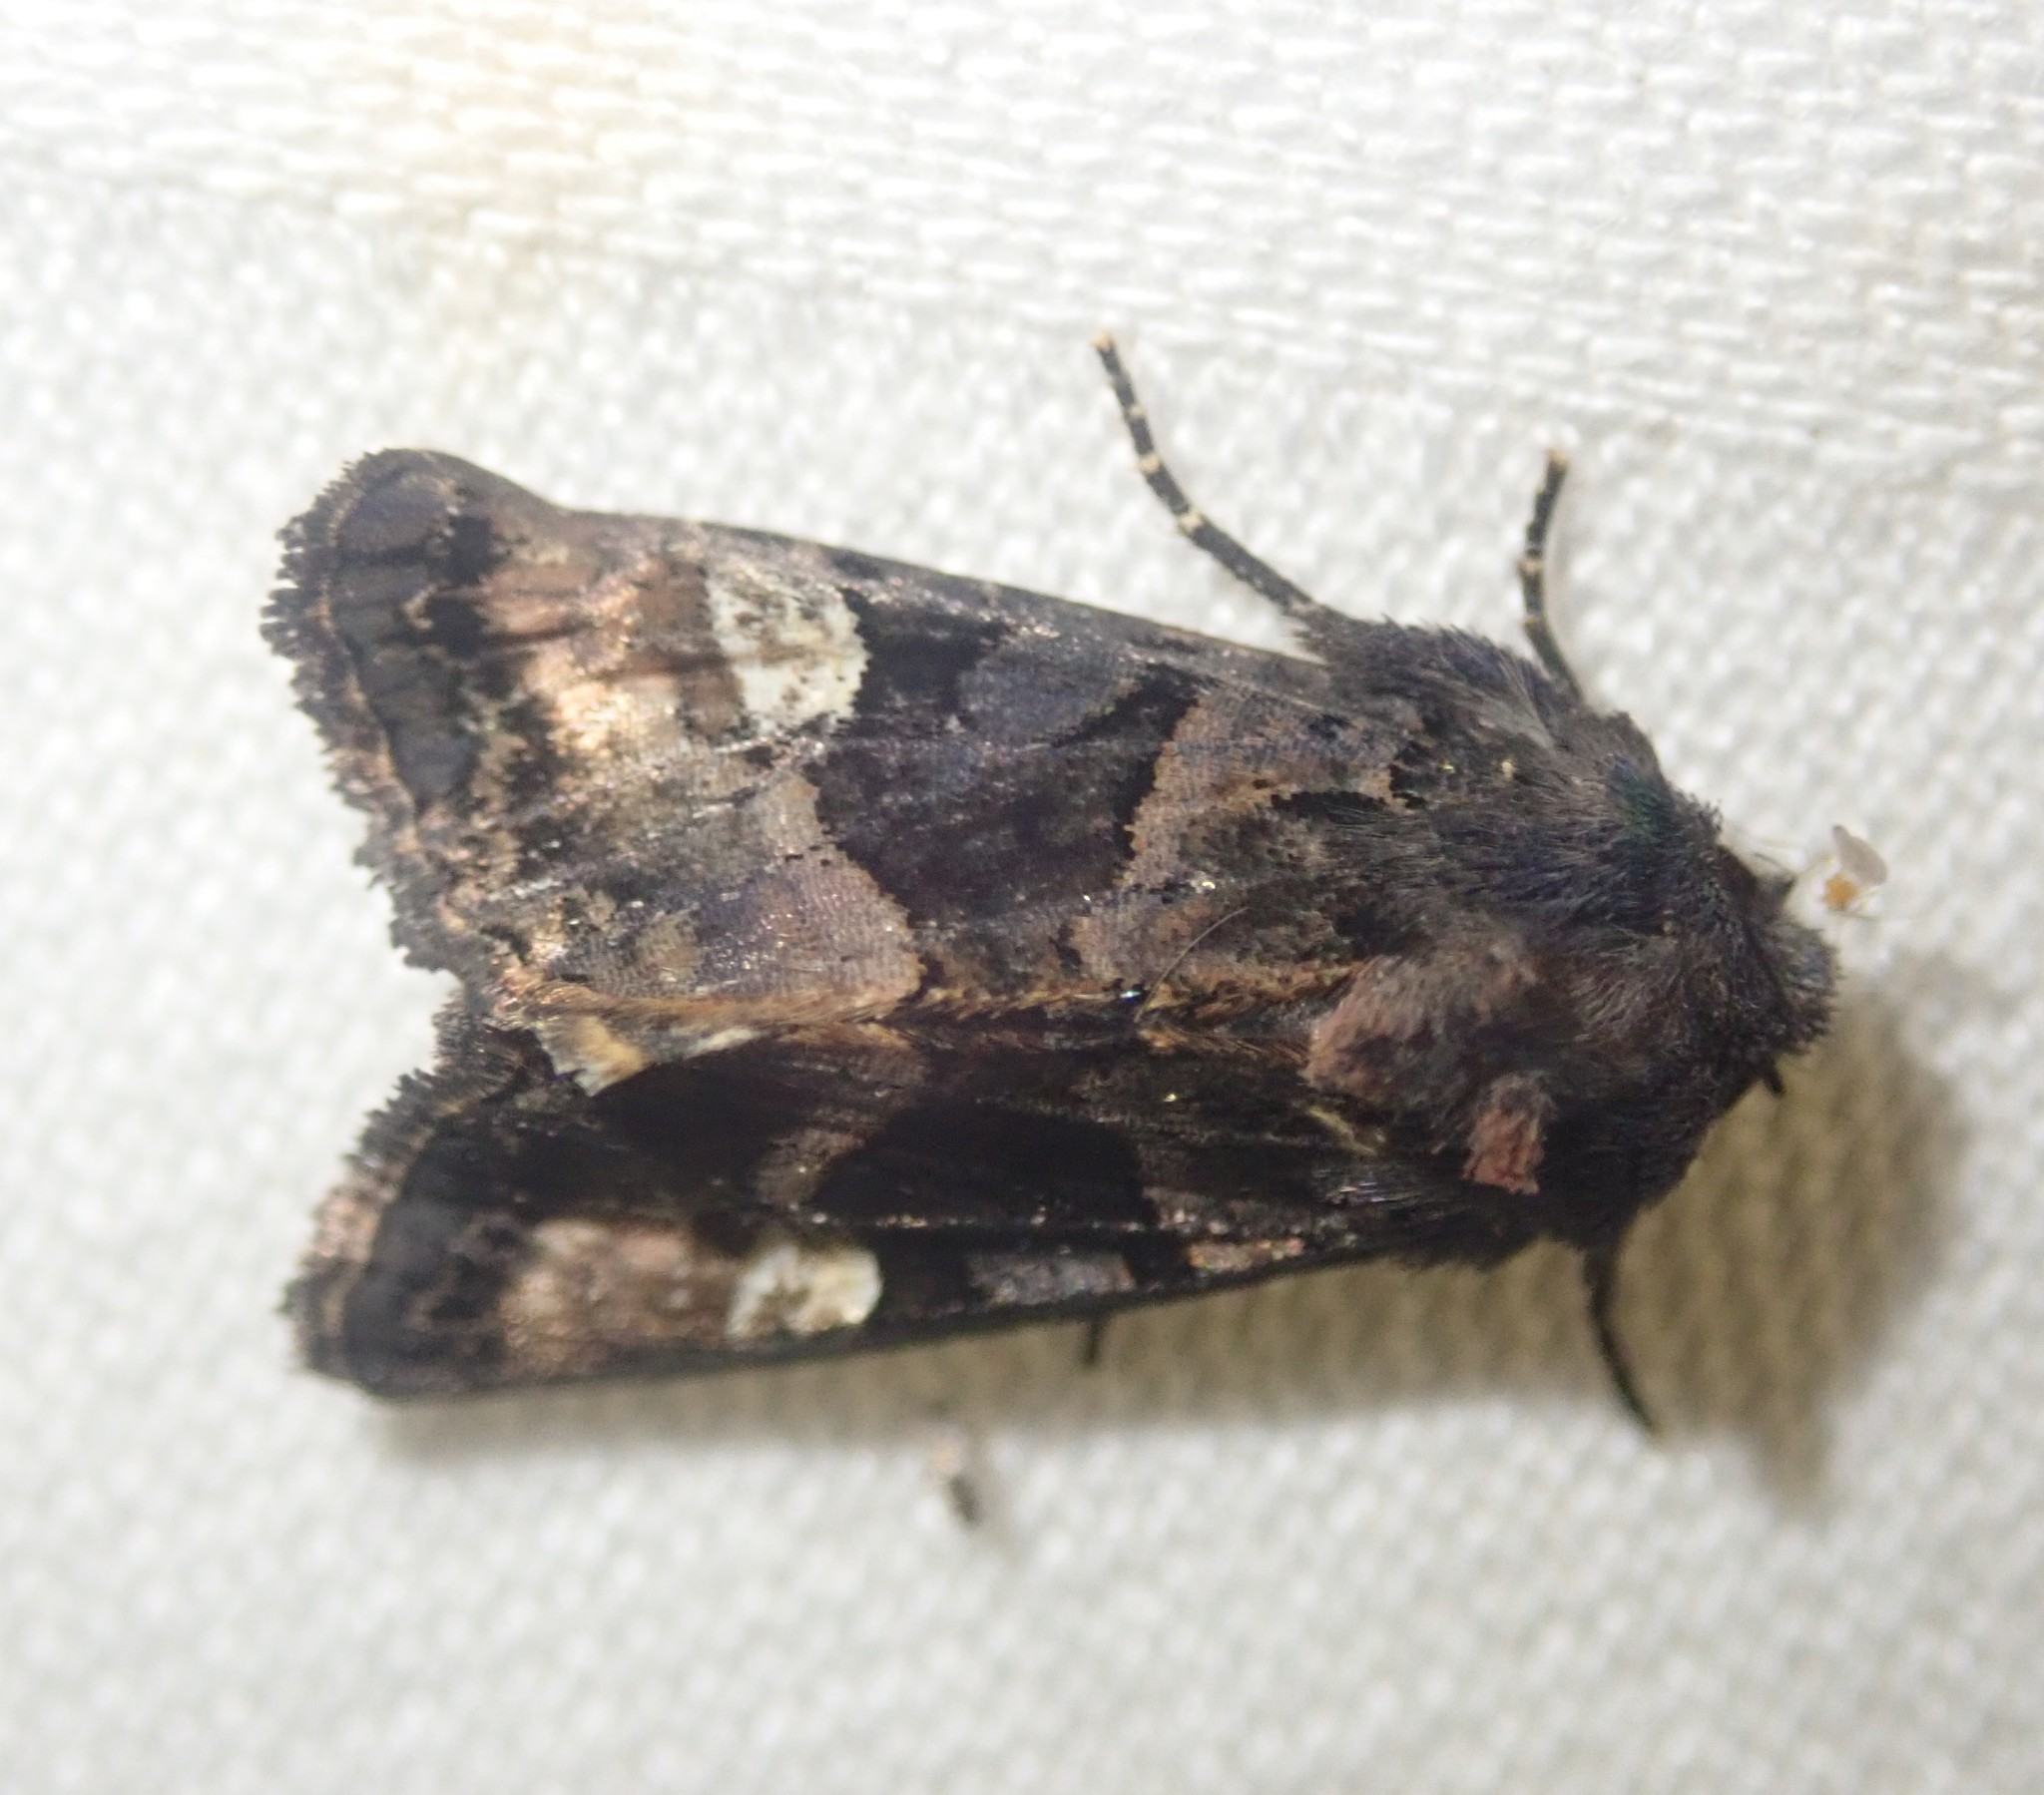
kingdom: Animalia
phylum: Arthropoda
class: Insecta
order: Lepidoptera
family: Noctuidae
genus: Euplexia
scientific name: Euplexia lucipara
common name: Small angle shades
